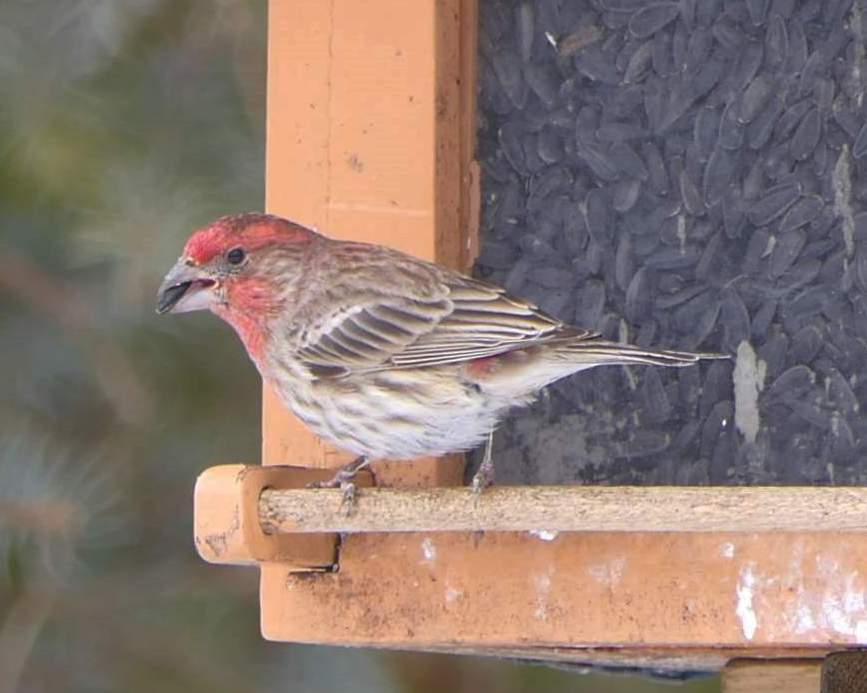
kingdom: Animalia
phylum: Chordata
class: Aves
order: Passeriformes
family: Fringillidae
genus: Haemorhous
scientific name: Haemorhous mexicanus
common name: House finch
